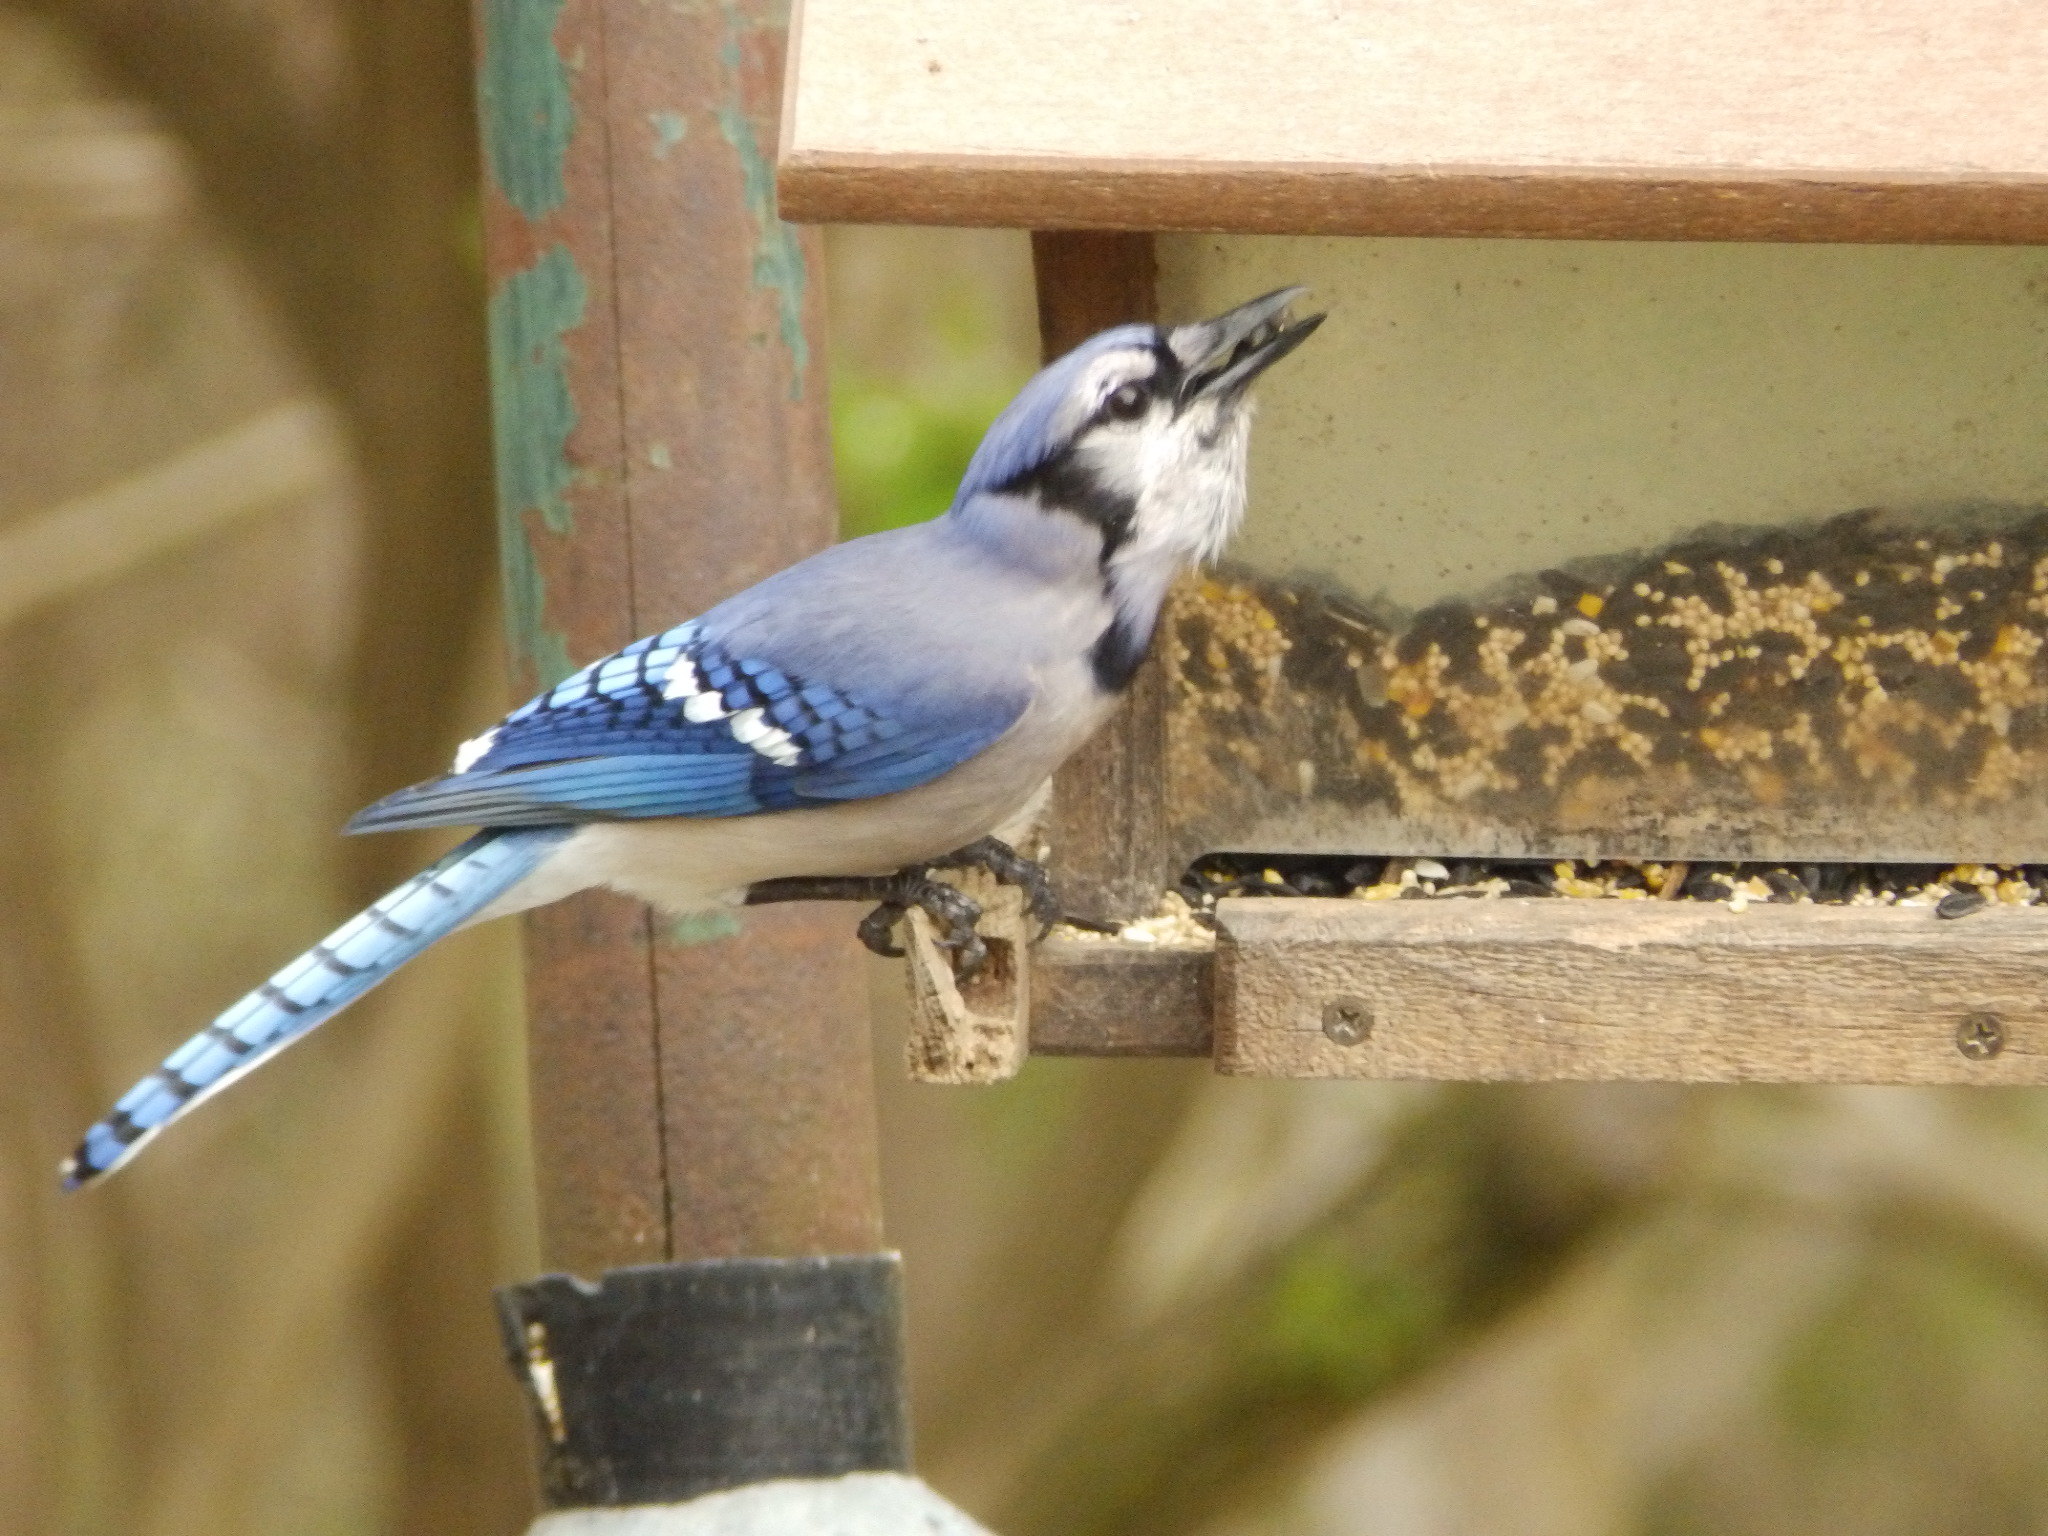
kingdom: Animalia
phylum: Chordata
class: Aves
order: Passeriformes
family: Corvidae
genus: Cyanocitta
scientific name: Cyanocitta cristata
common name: Blue jay
